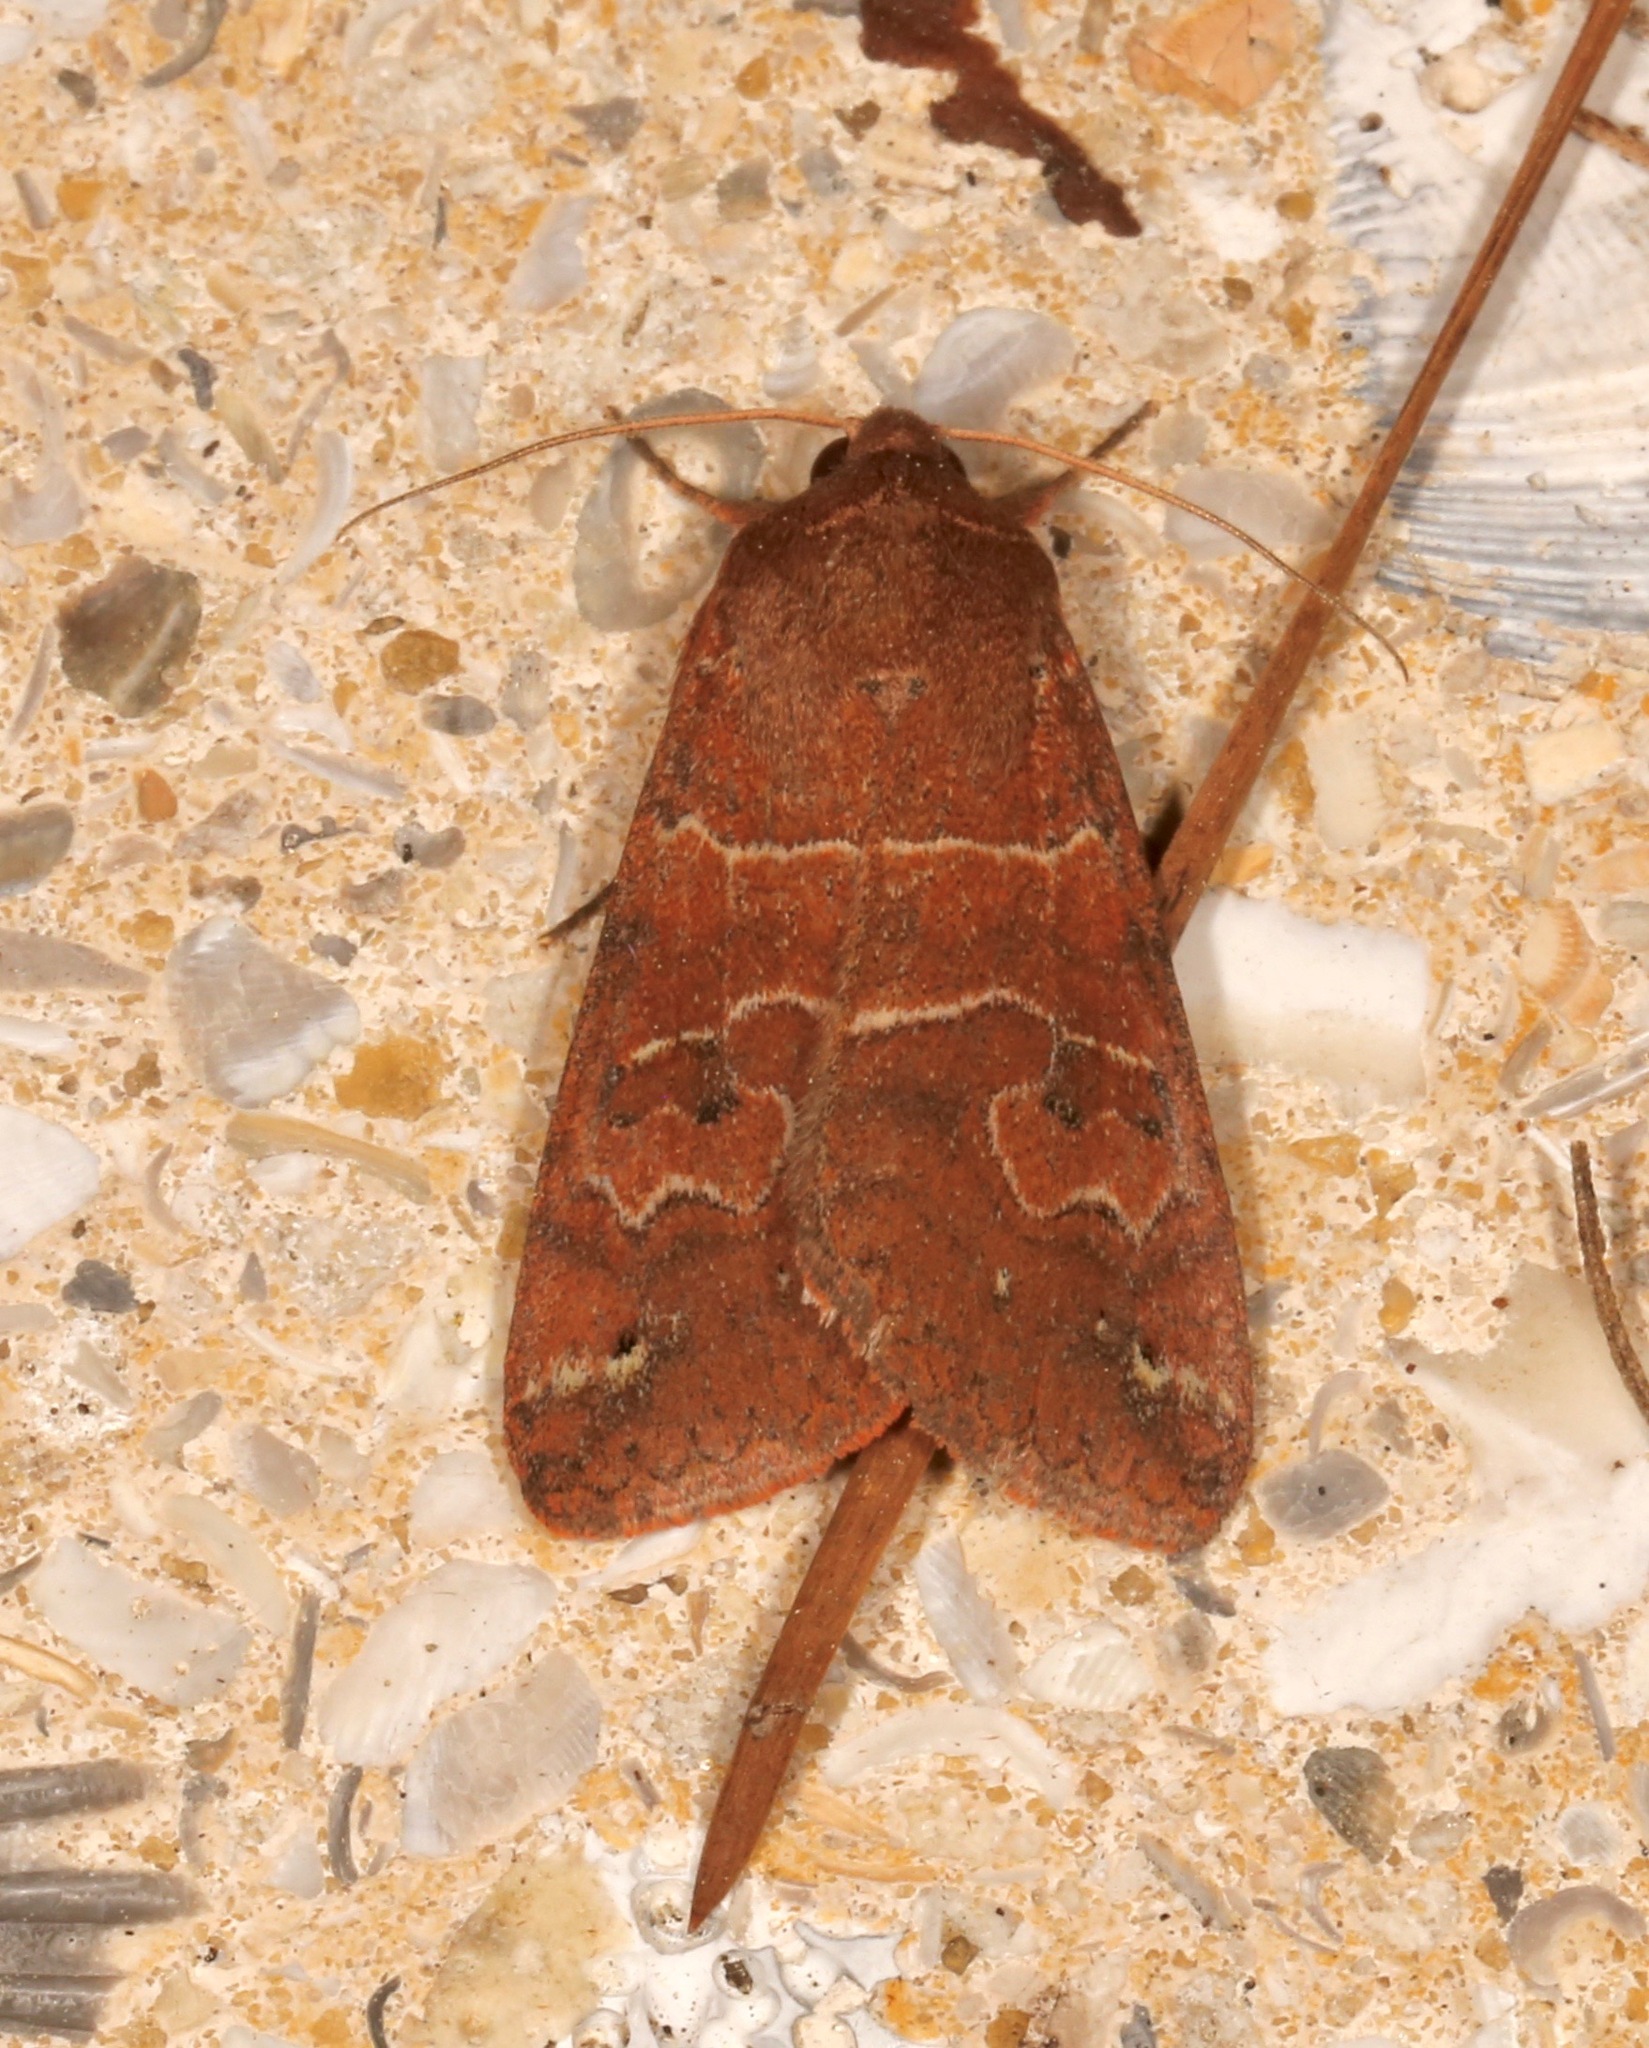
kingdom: Animalia
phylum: Arthropoda
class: Insecta
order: Lepidoptera
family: Erebidae
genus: Cissusa
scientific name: Cissusa spadix
